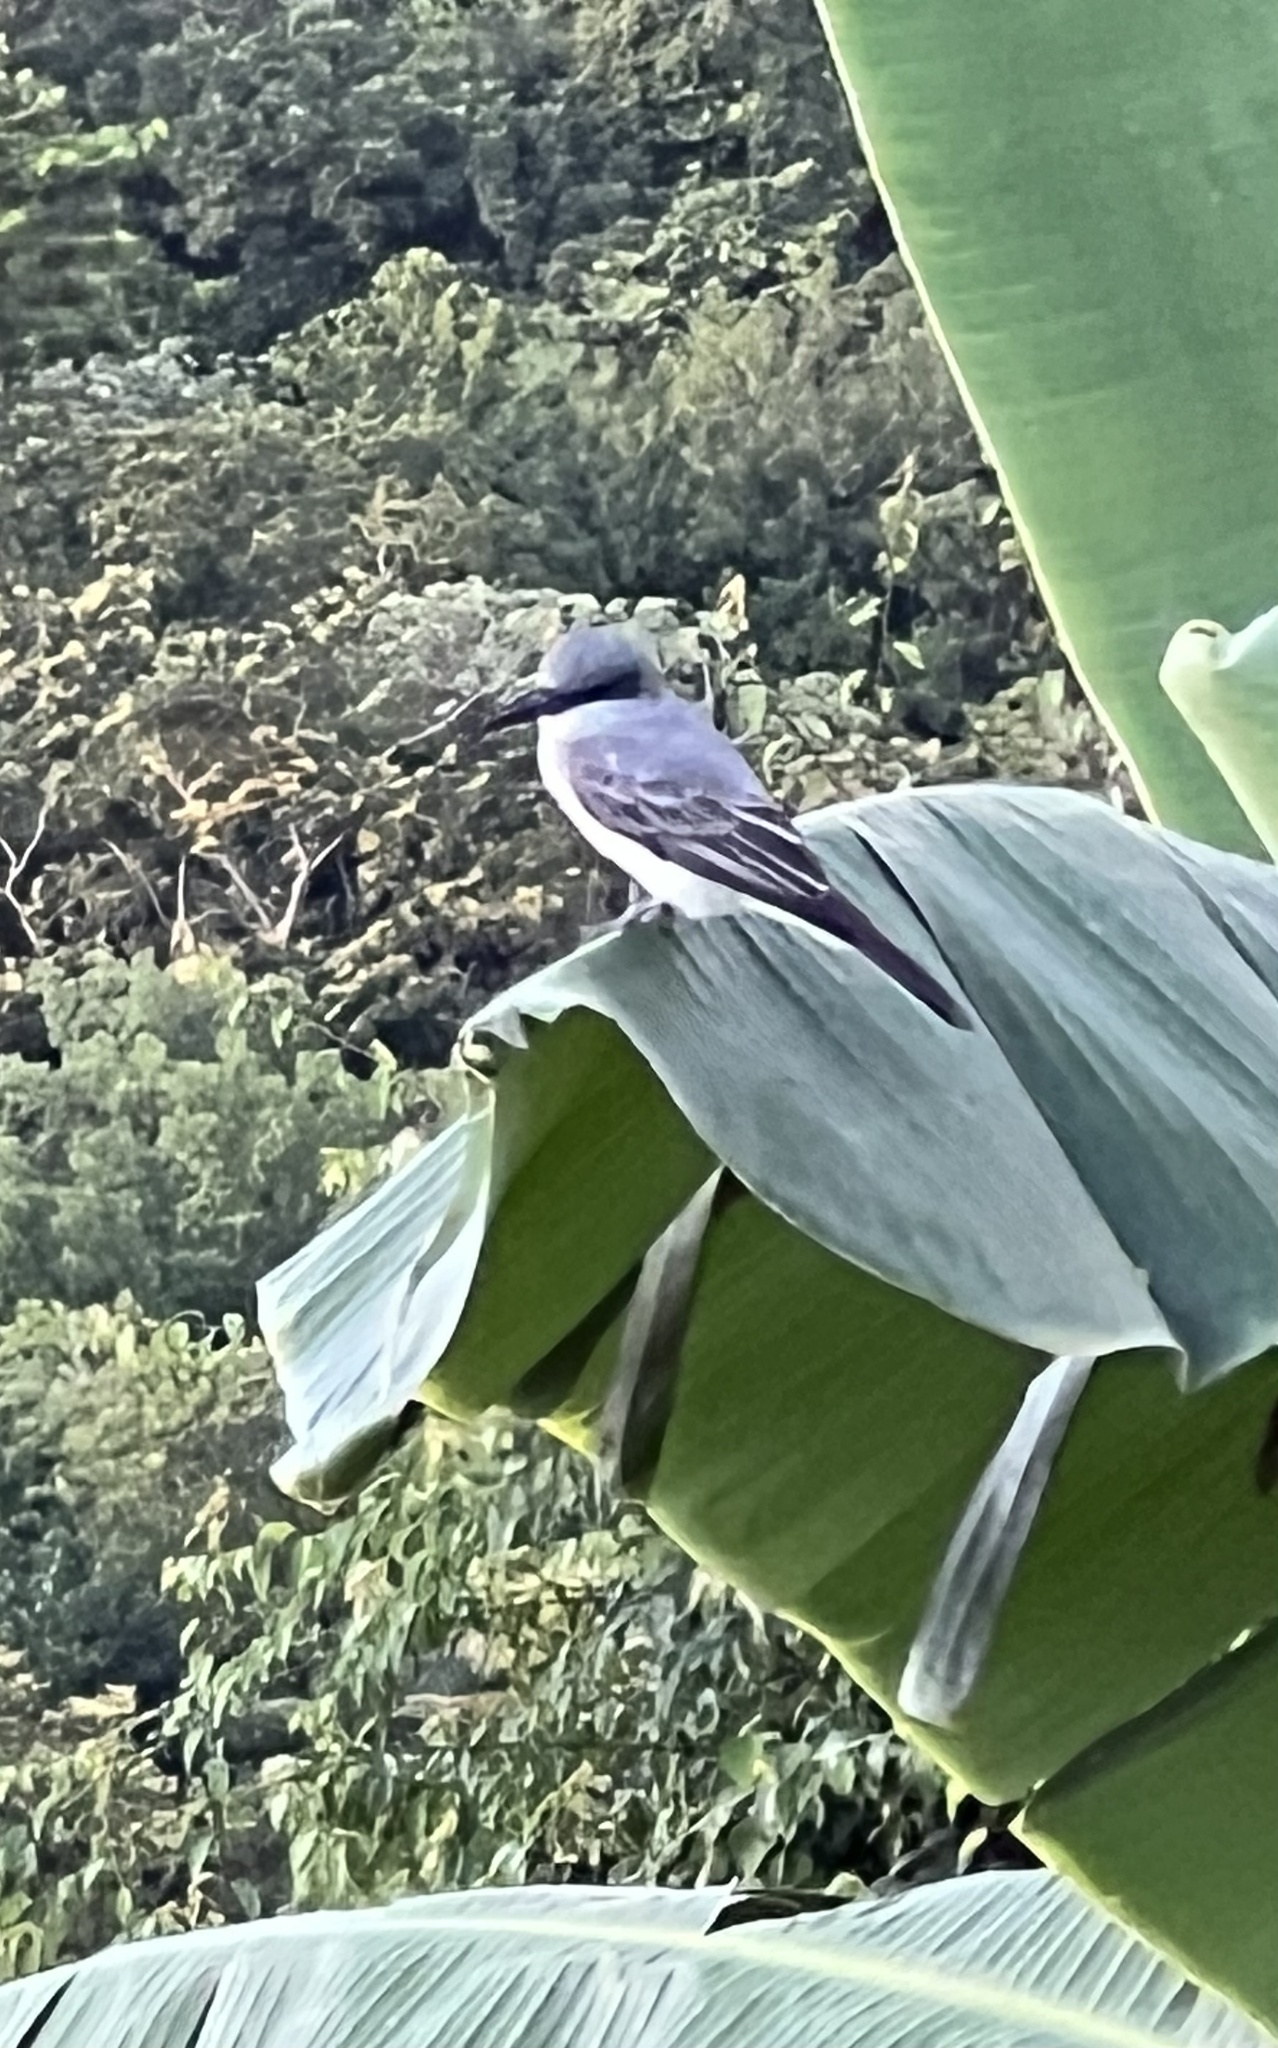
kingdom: Animalia
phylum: Chordata
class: Aves
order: Passeriformes
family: Tyrannidae
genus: Tyrannus
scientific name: Tyrannus dominicensis
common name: Gray kingbird
